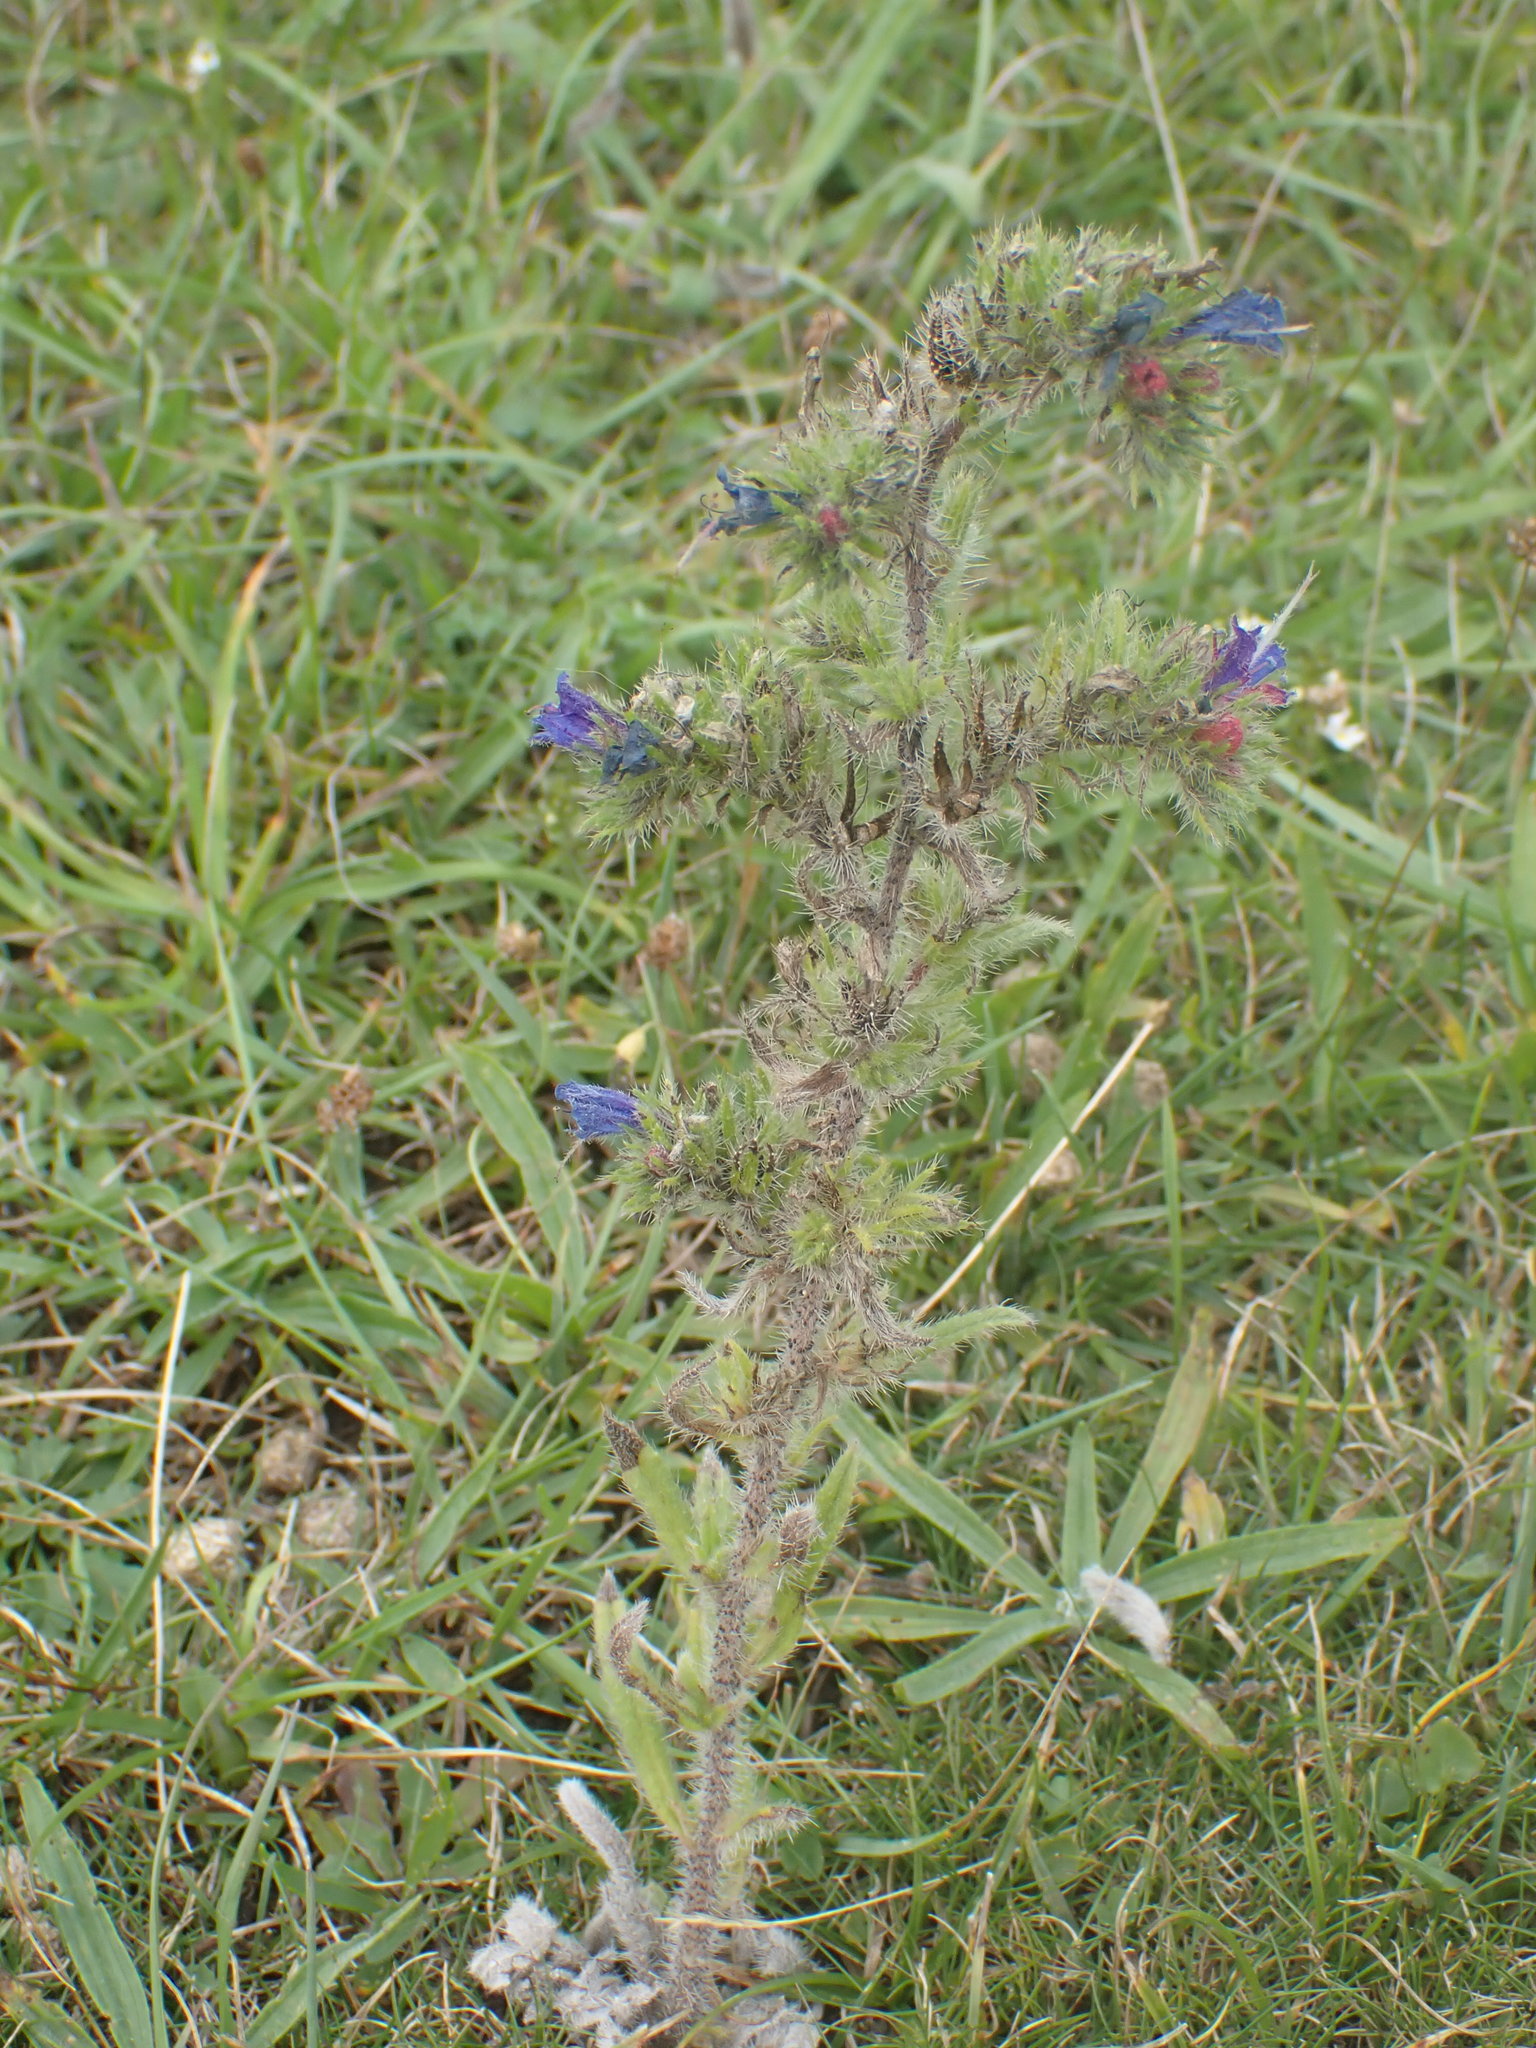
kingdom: Plantae
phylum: Tracheophyta
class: Magnoliopsida
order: Boraginales
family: Boraginaceae
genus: Echium
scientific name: Echium vulgare
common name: Common viper's bugloss
